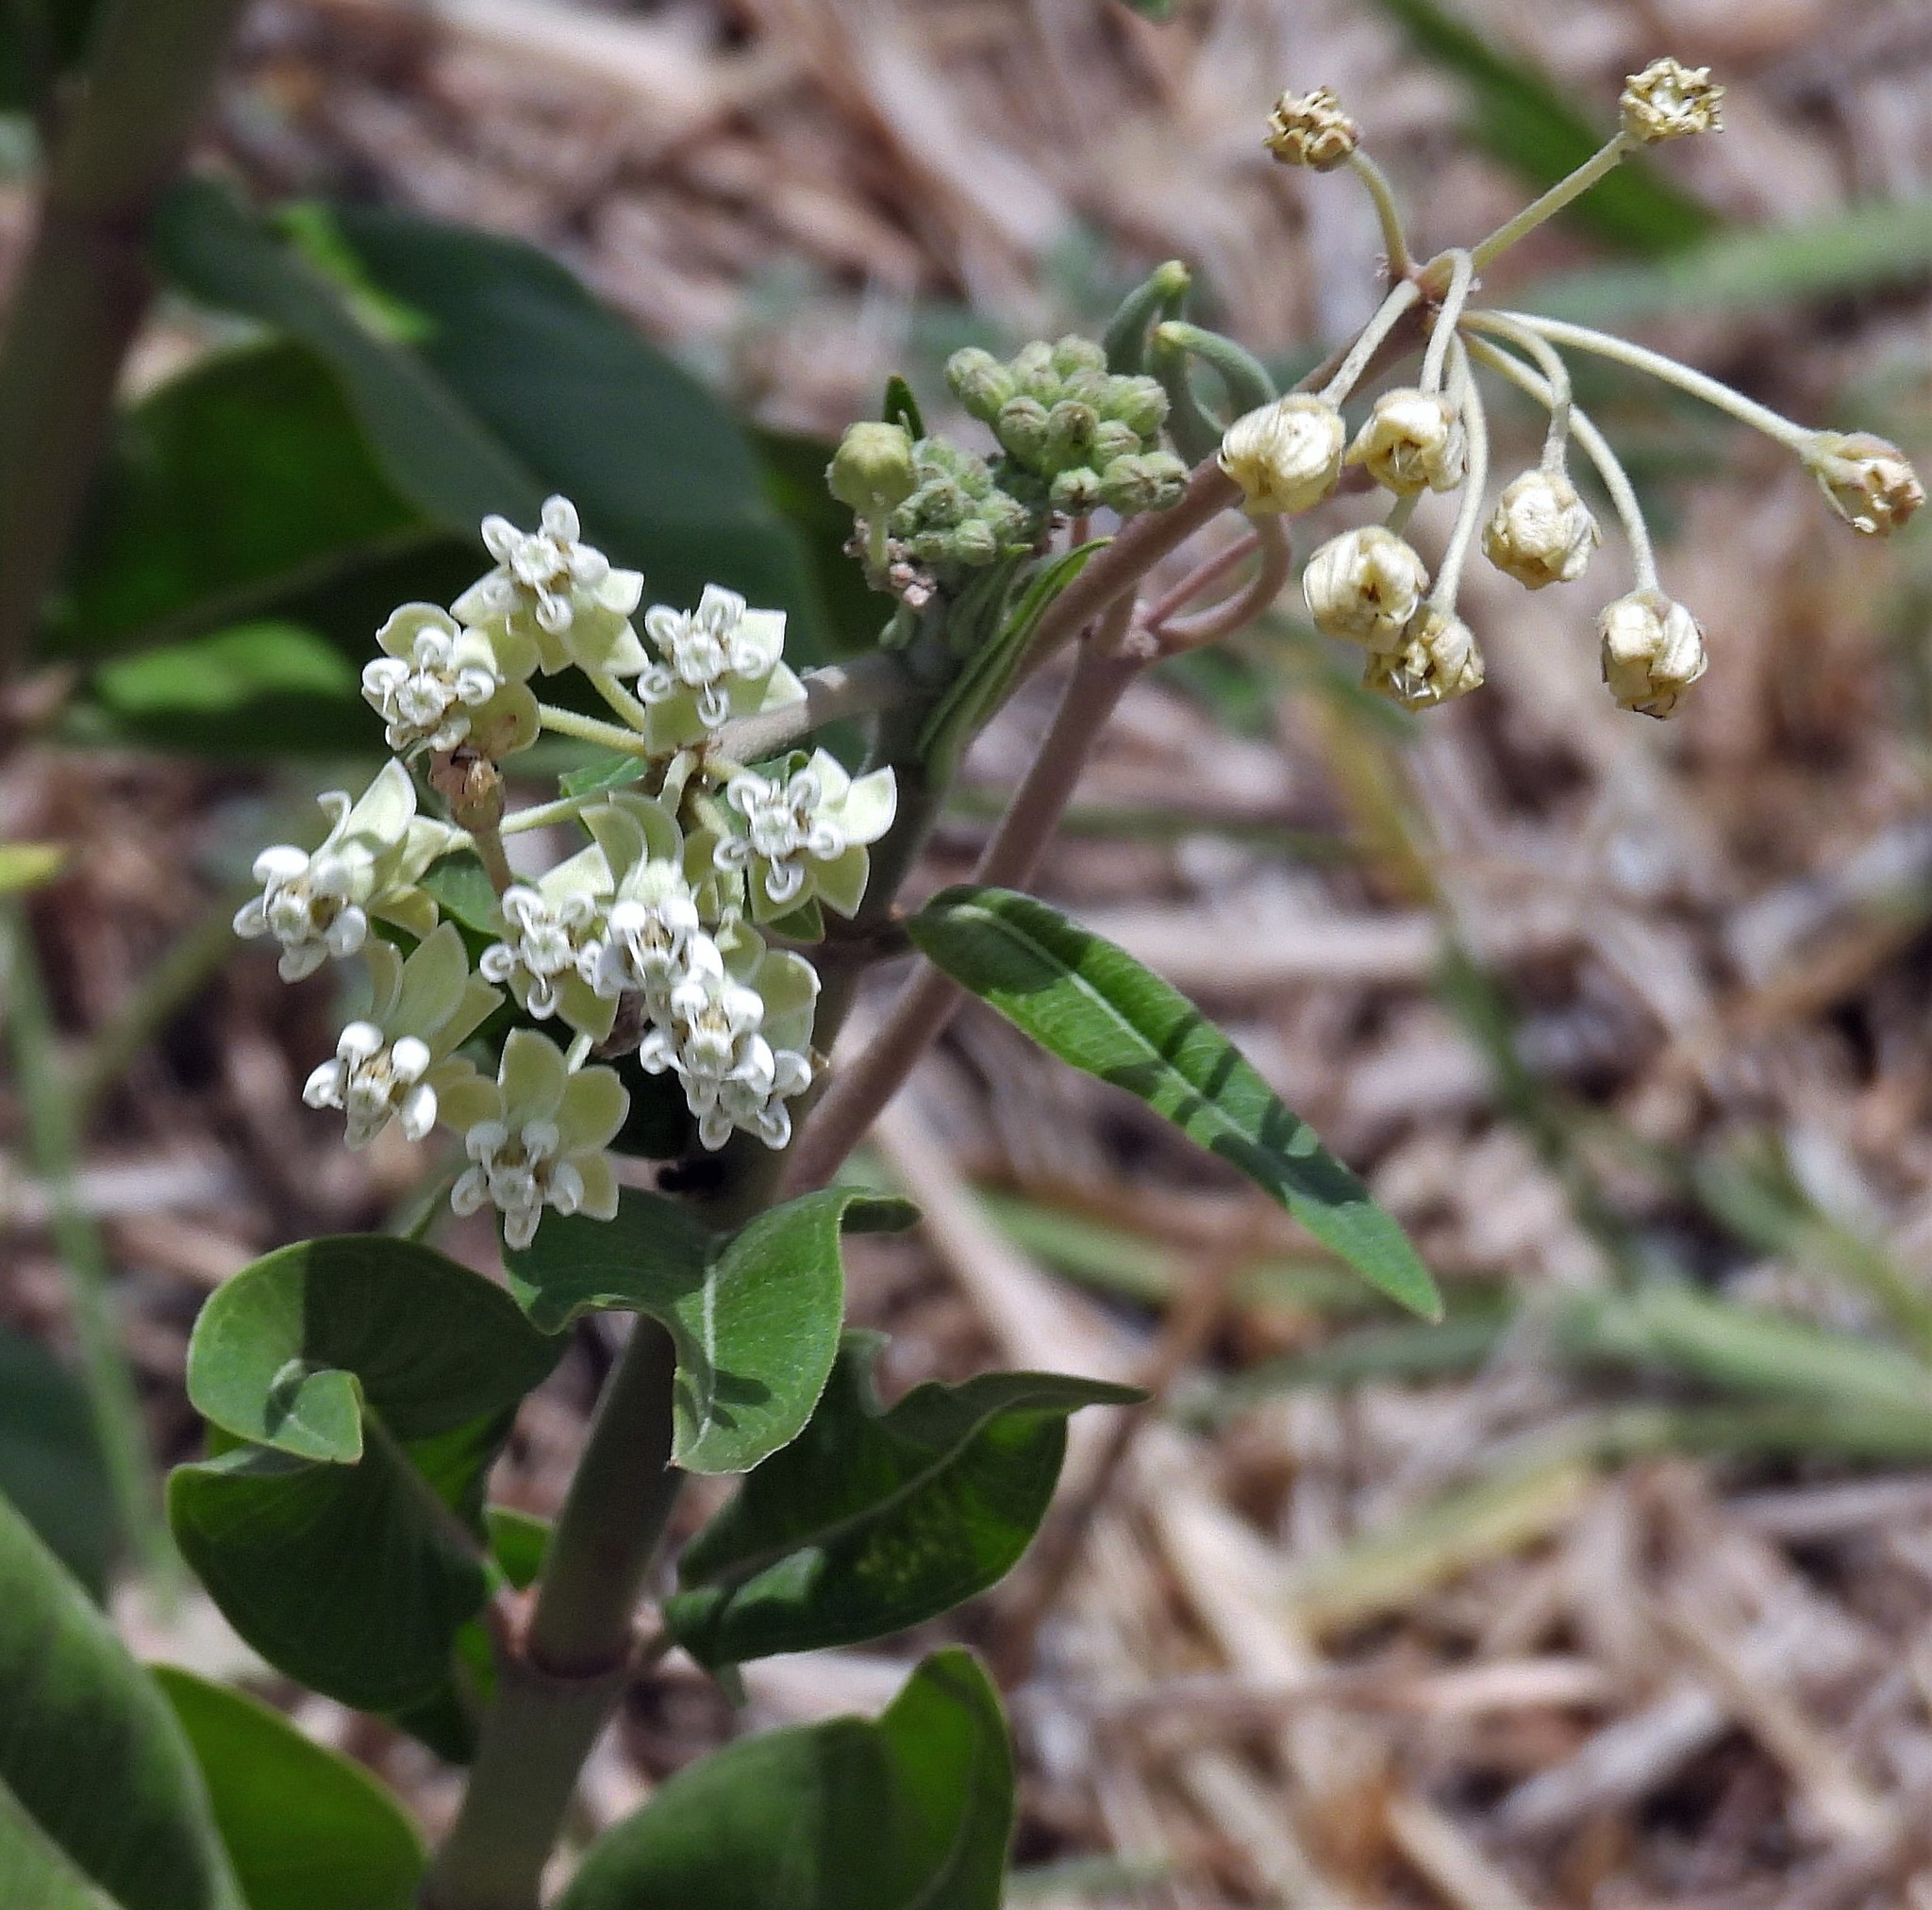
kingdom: Plantae
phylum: Tracheophyta
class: Magnoliopsida
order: Gentianales
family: Apocynaceae
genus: Asclepias
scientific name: Asclepias mellodora
